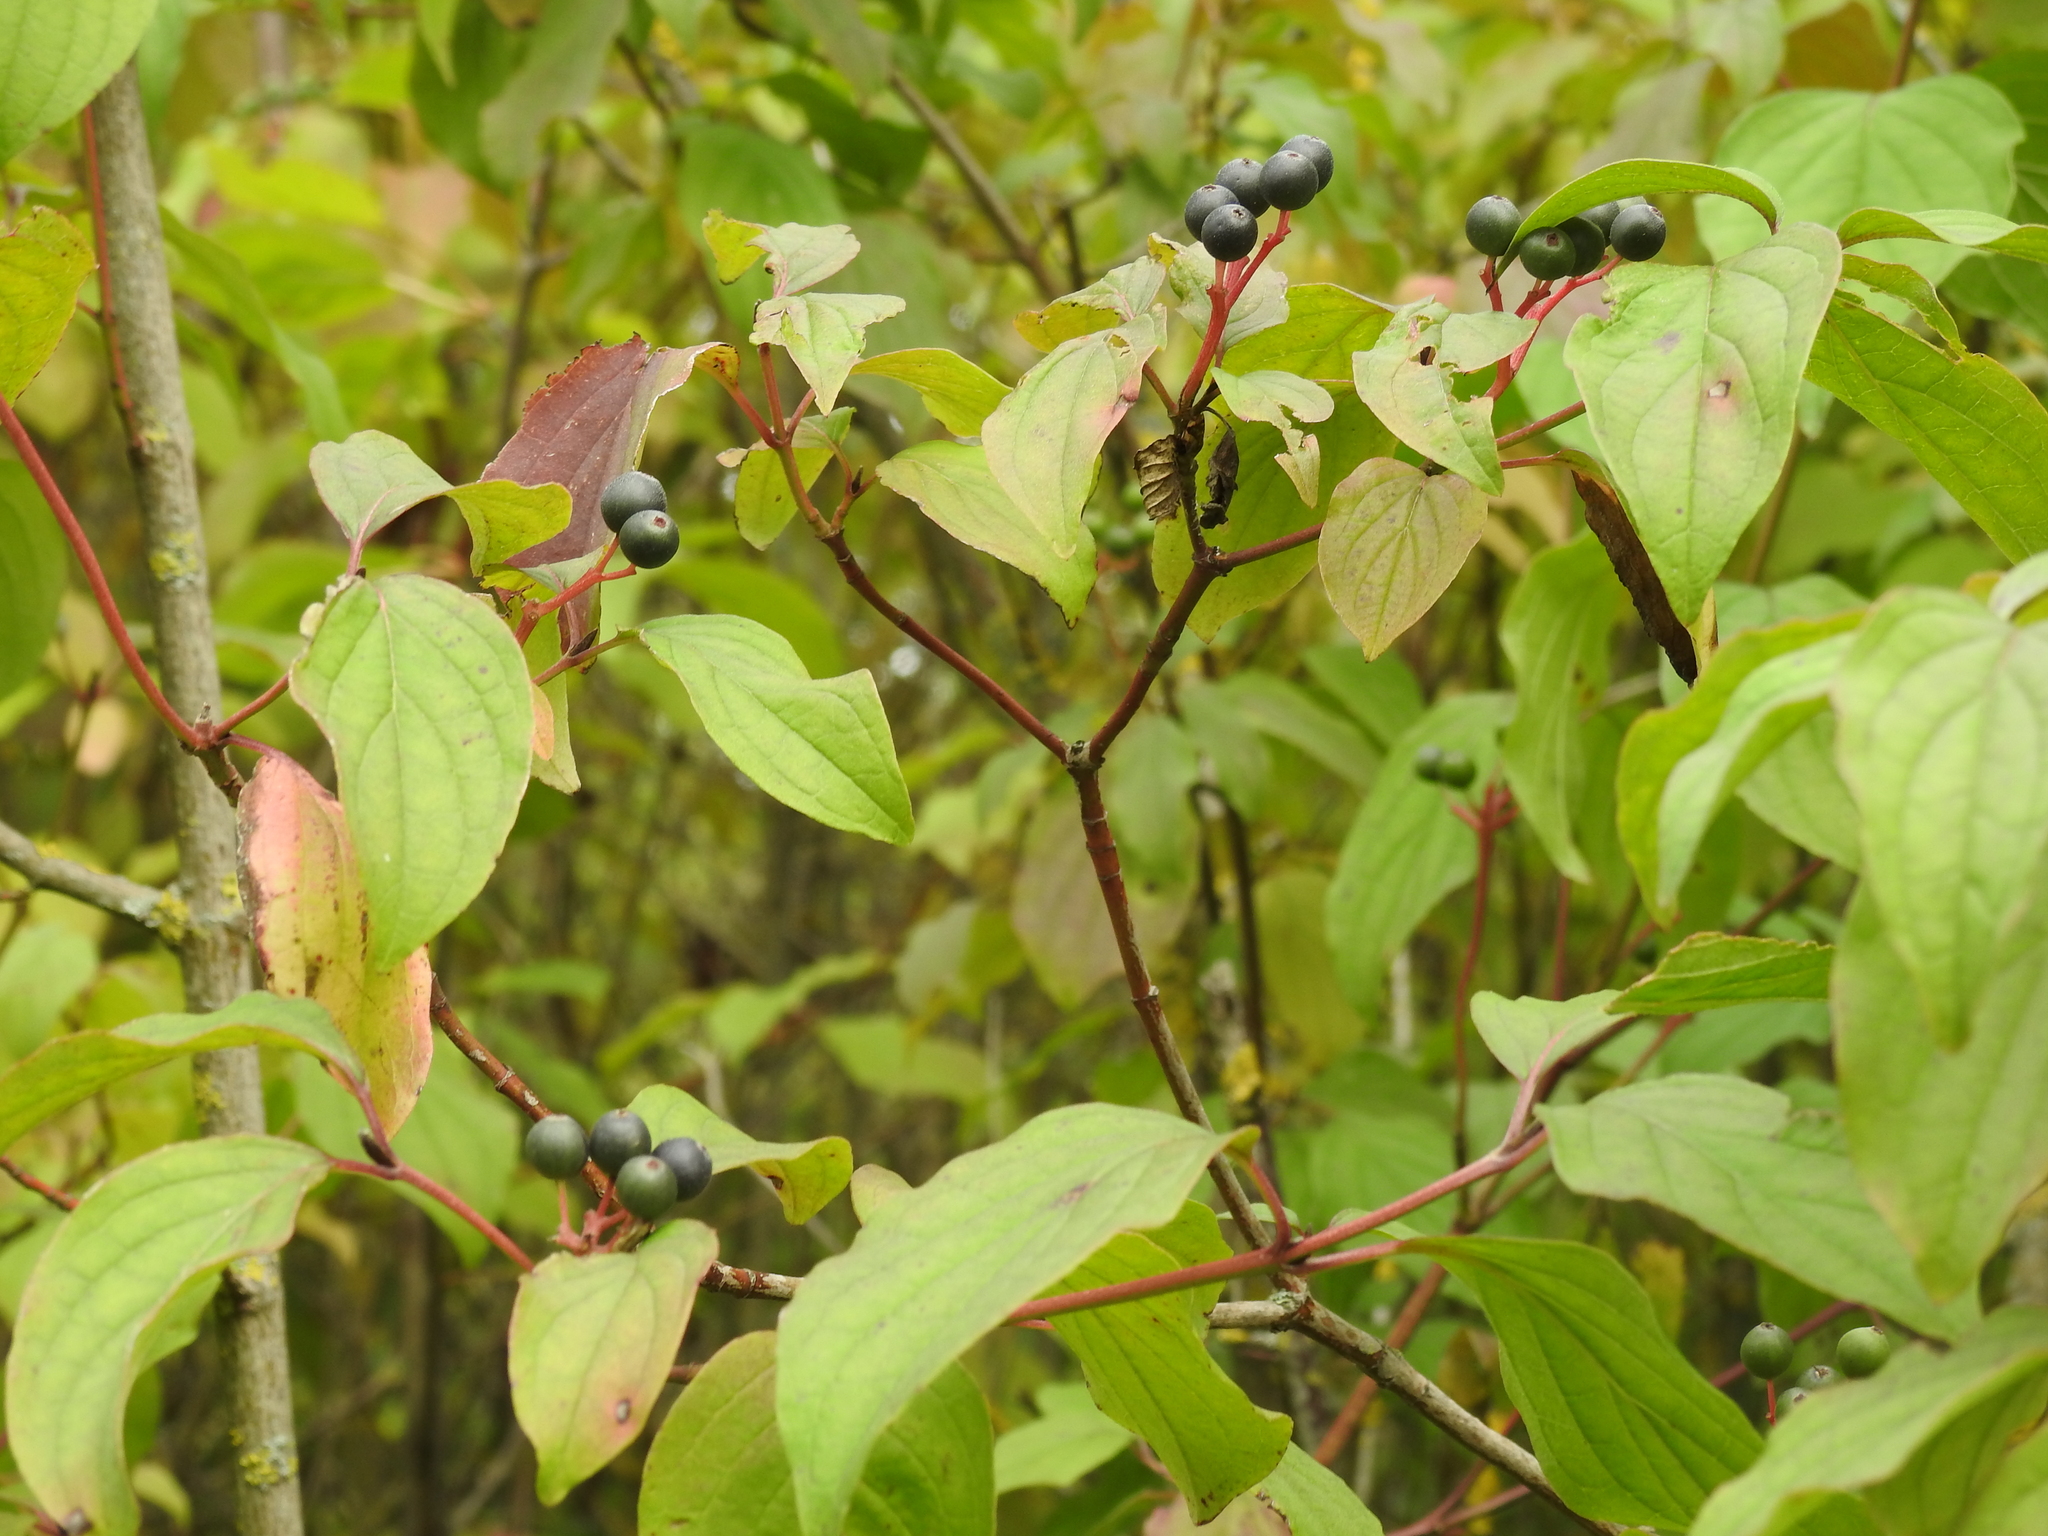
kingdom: Plantae
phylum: Tracheophyta
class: Magnoliopsida
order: Cornales
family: Cornaceae
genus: Cornus
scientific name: Cornus sanguinea
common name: Dogwood
